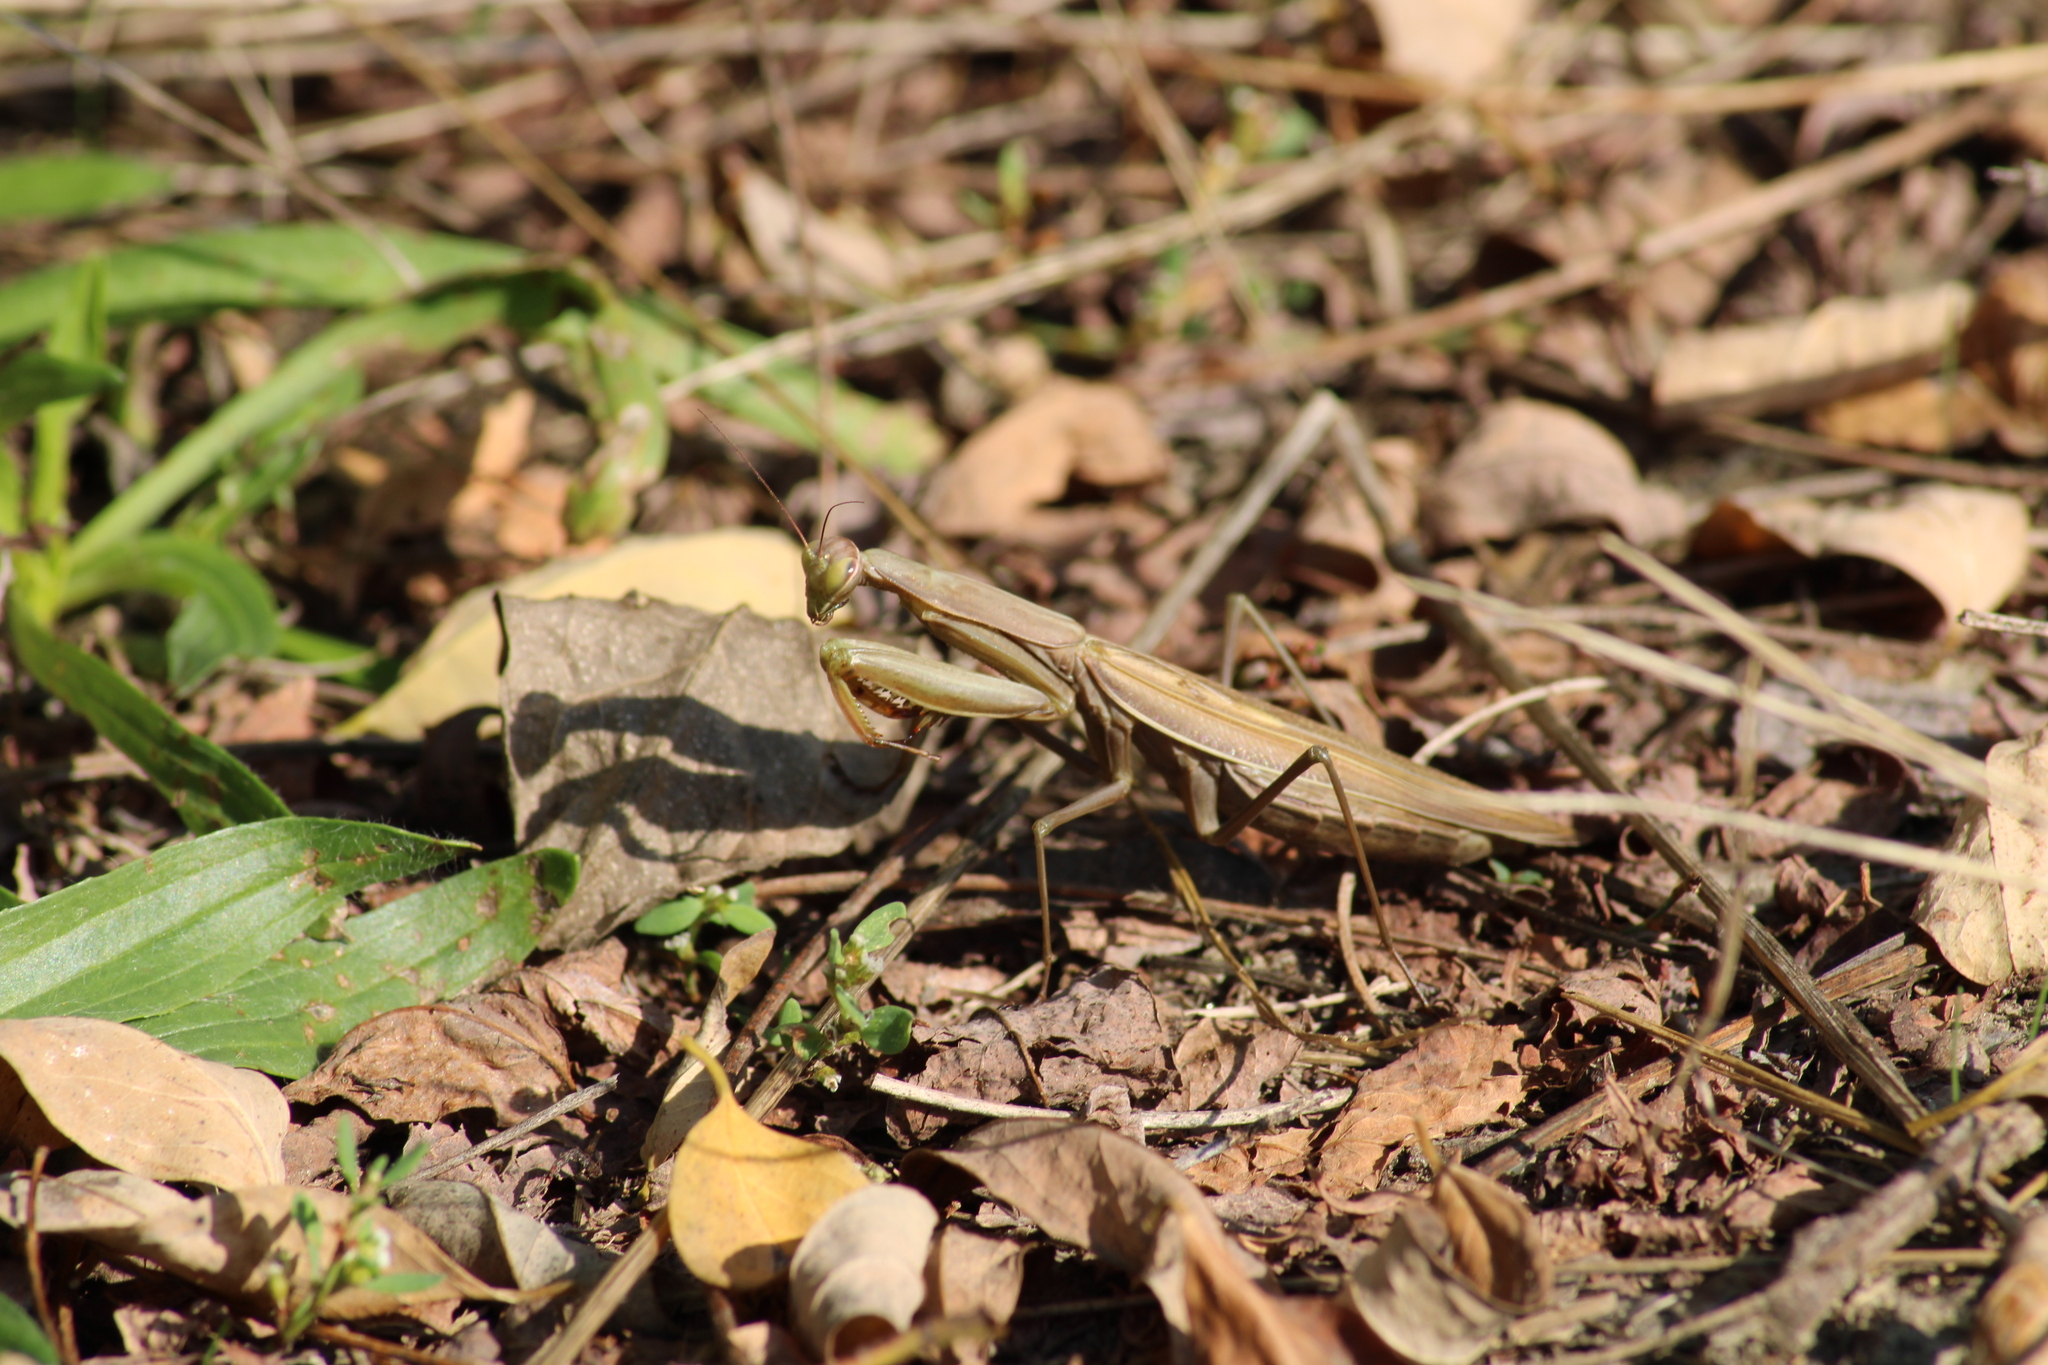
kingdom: Animalia
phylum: Arthropoda
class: Insecta
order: Mantodea
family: Mantidae
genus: Mantis
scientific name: Mantis religiosa
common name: Praying mantis
